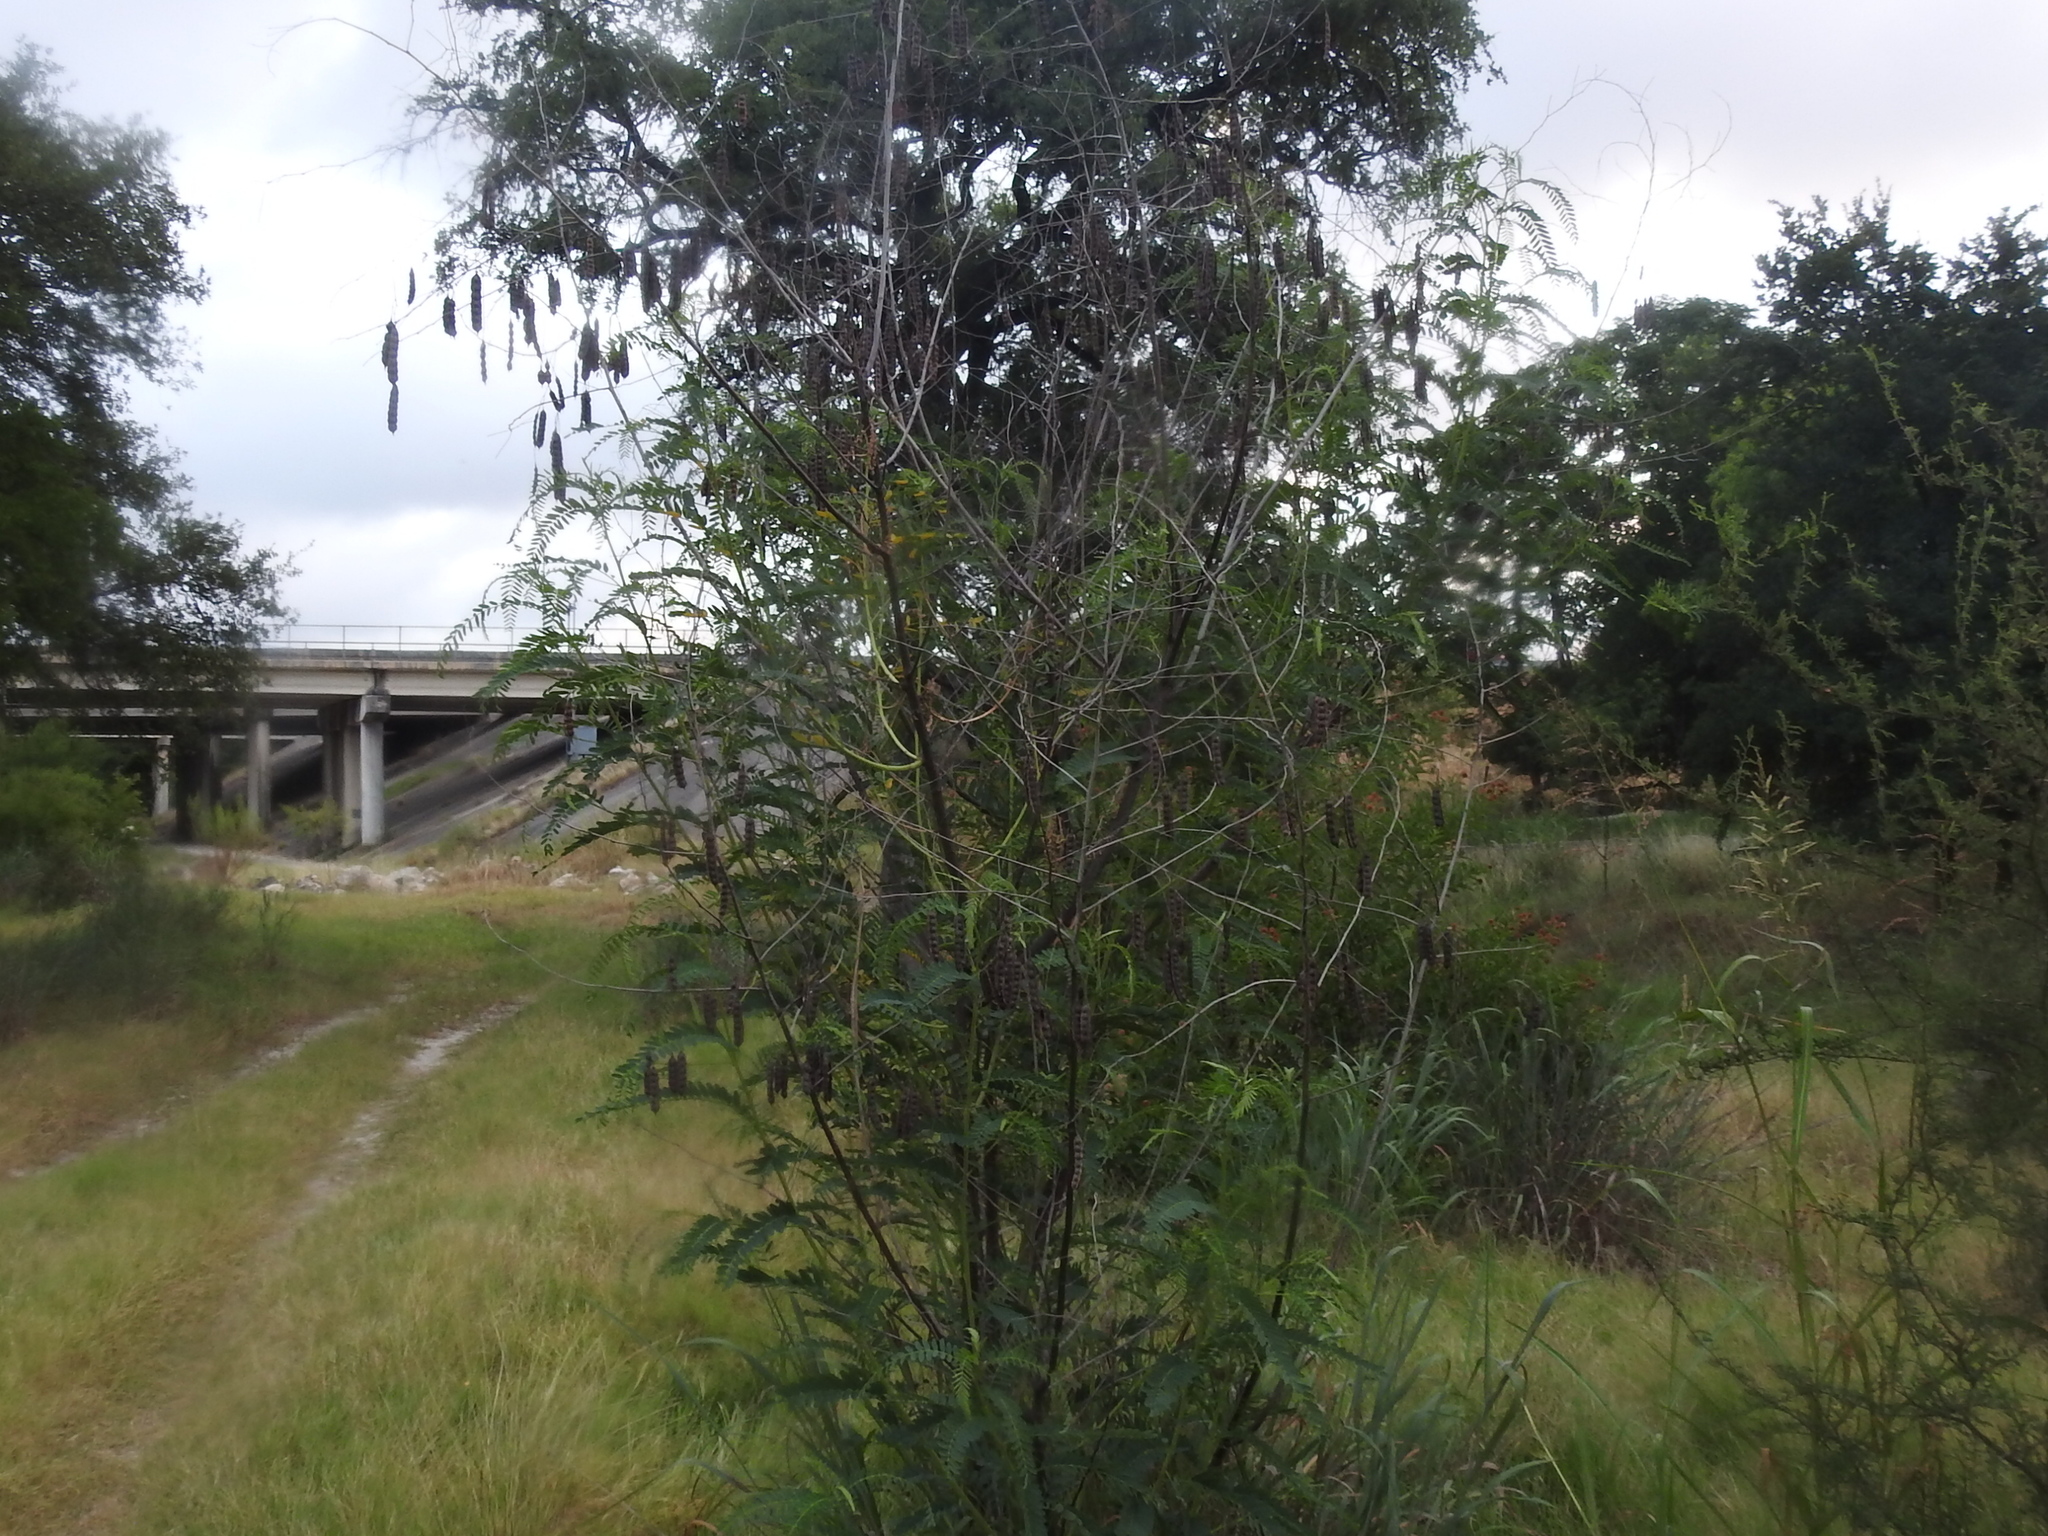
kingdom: Plantae
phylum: Tracheophyta
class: Magnoliopsida
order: Fabales
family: Fabaceae
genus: Sesbania
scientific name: Sesbania drummondii
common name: Poison-bean
